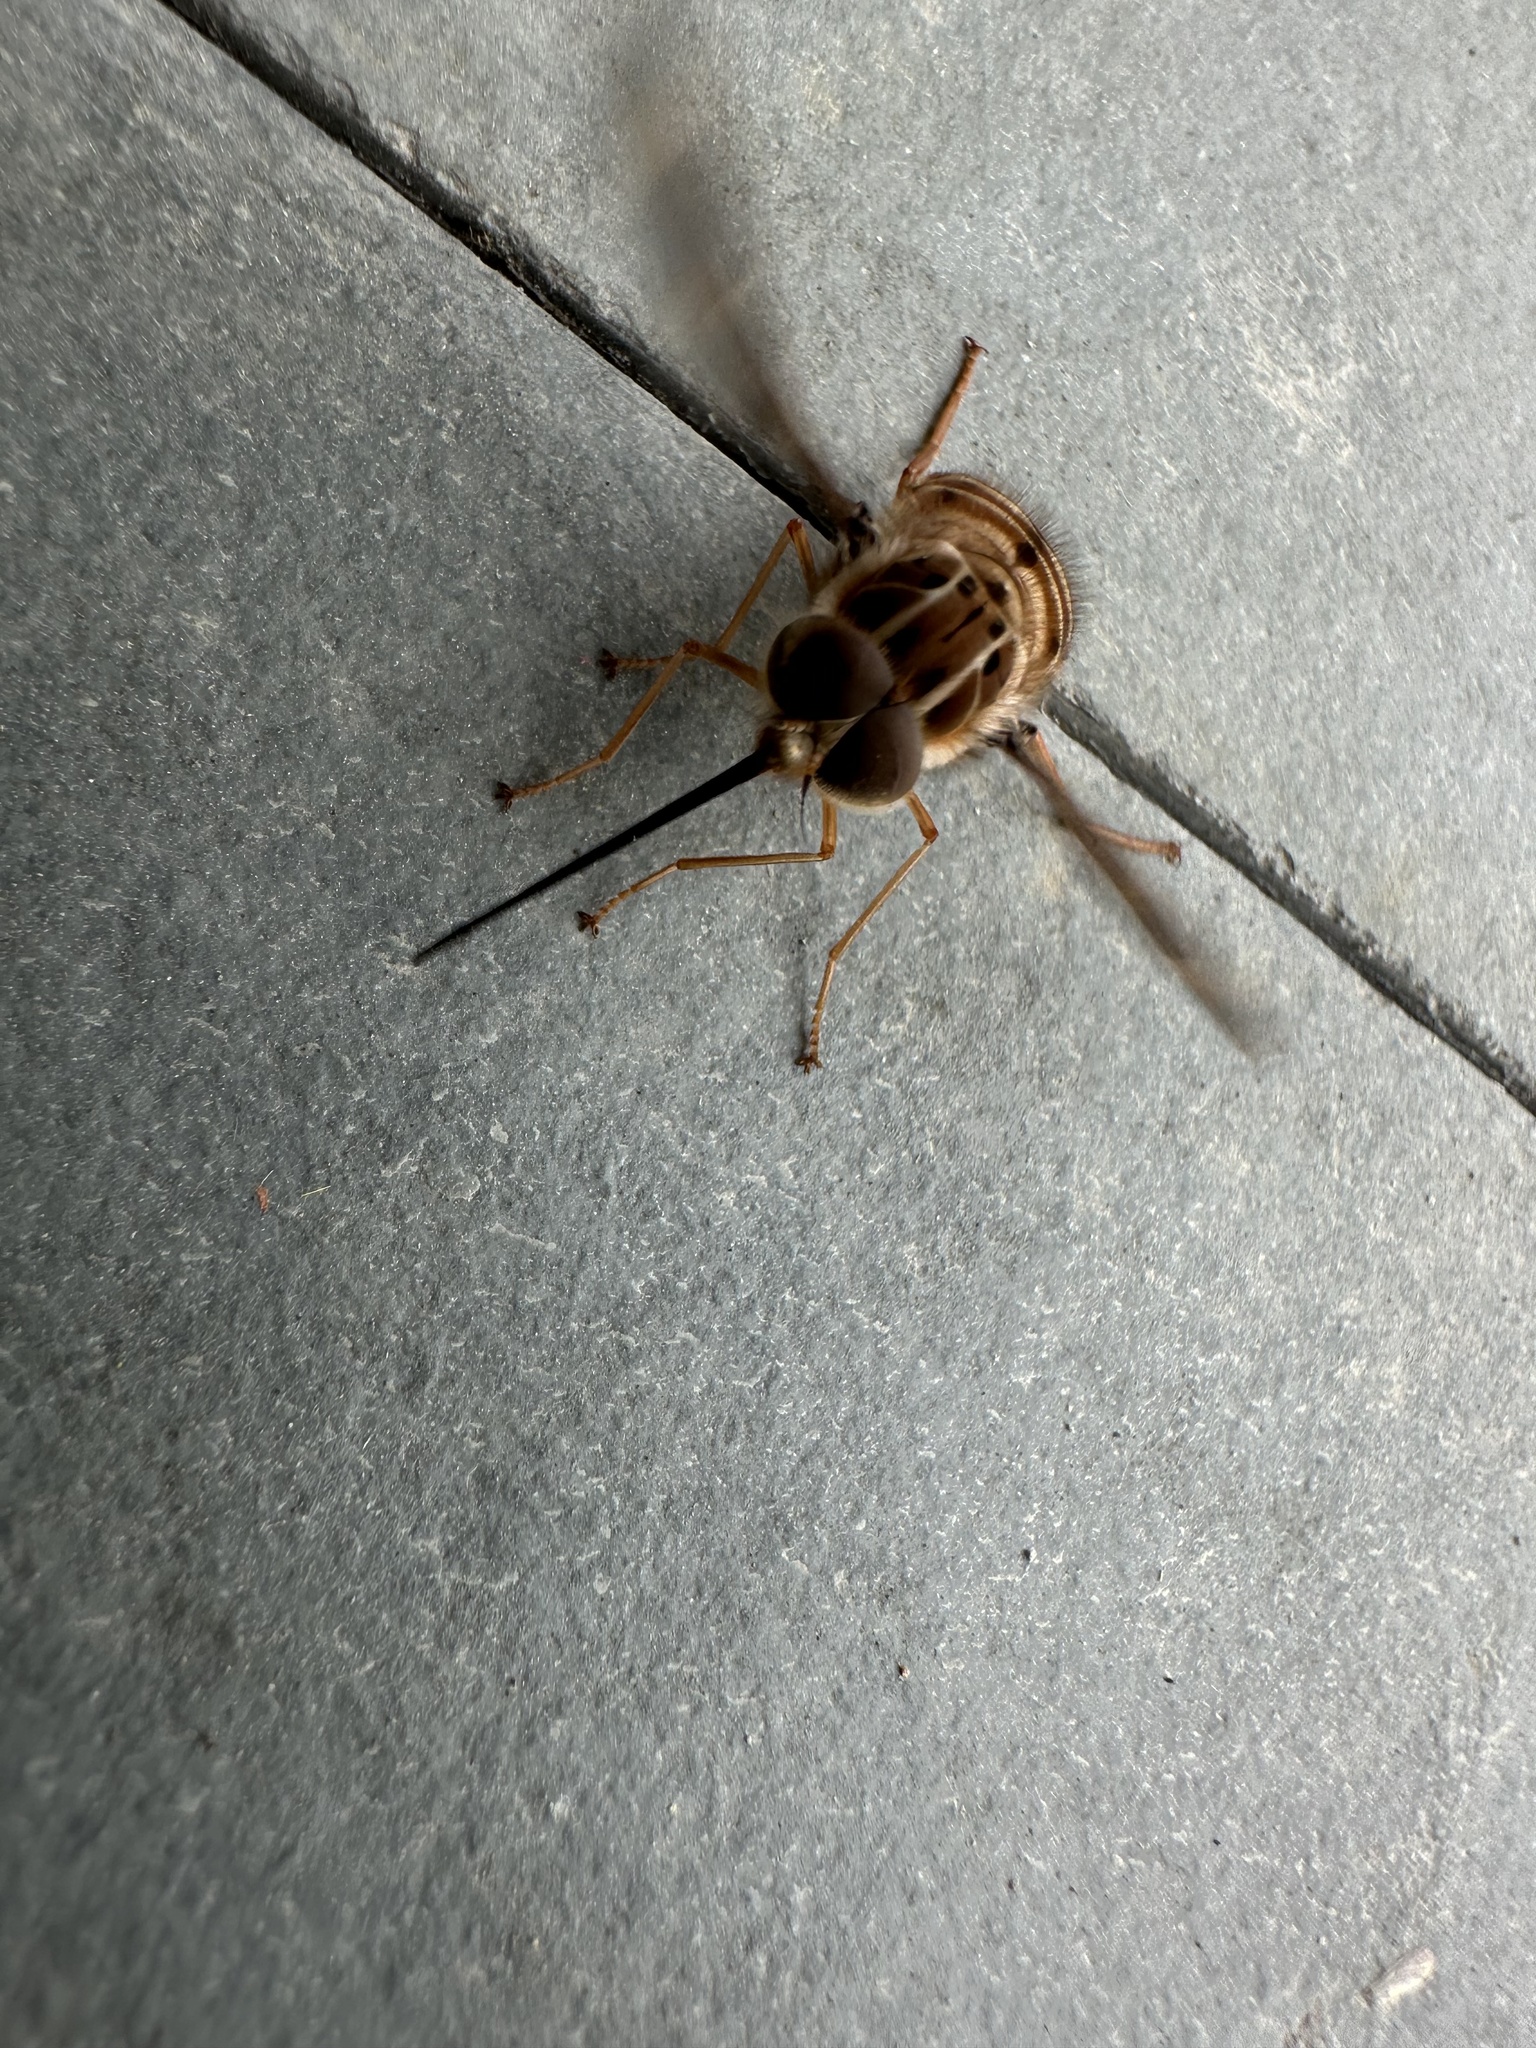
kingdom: Animalia
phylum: Arthropoda
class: Insecta
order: Diptera
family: Nemestrinidae
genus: Trichophthalma
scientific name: Trichophthalma nubipennis
